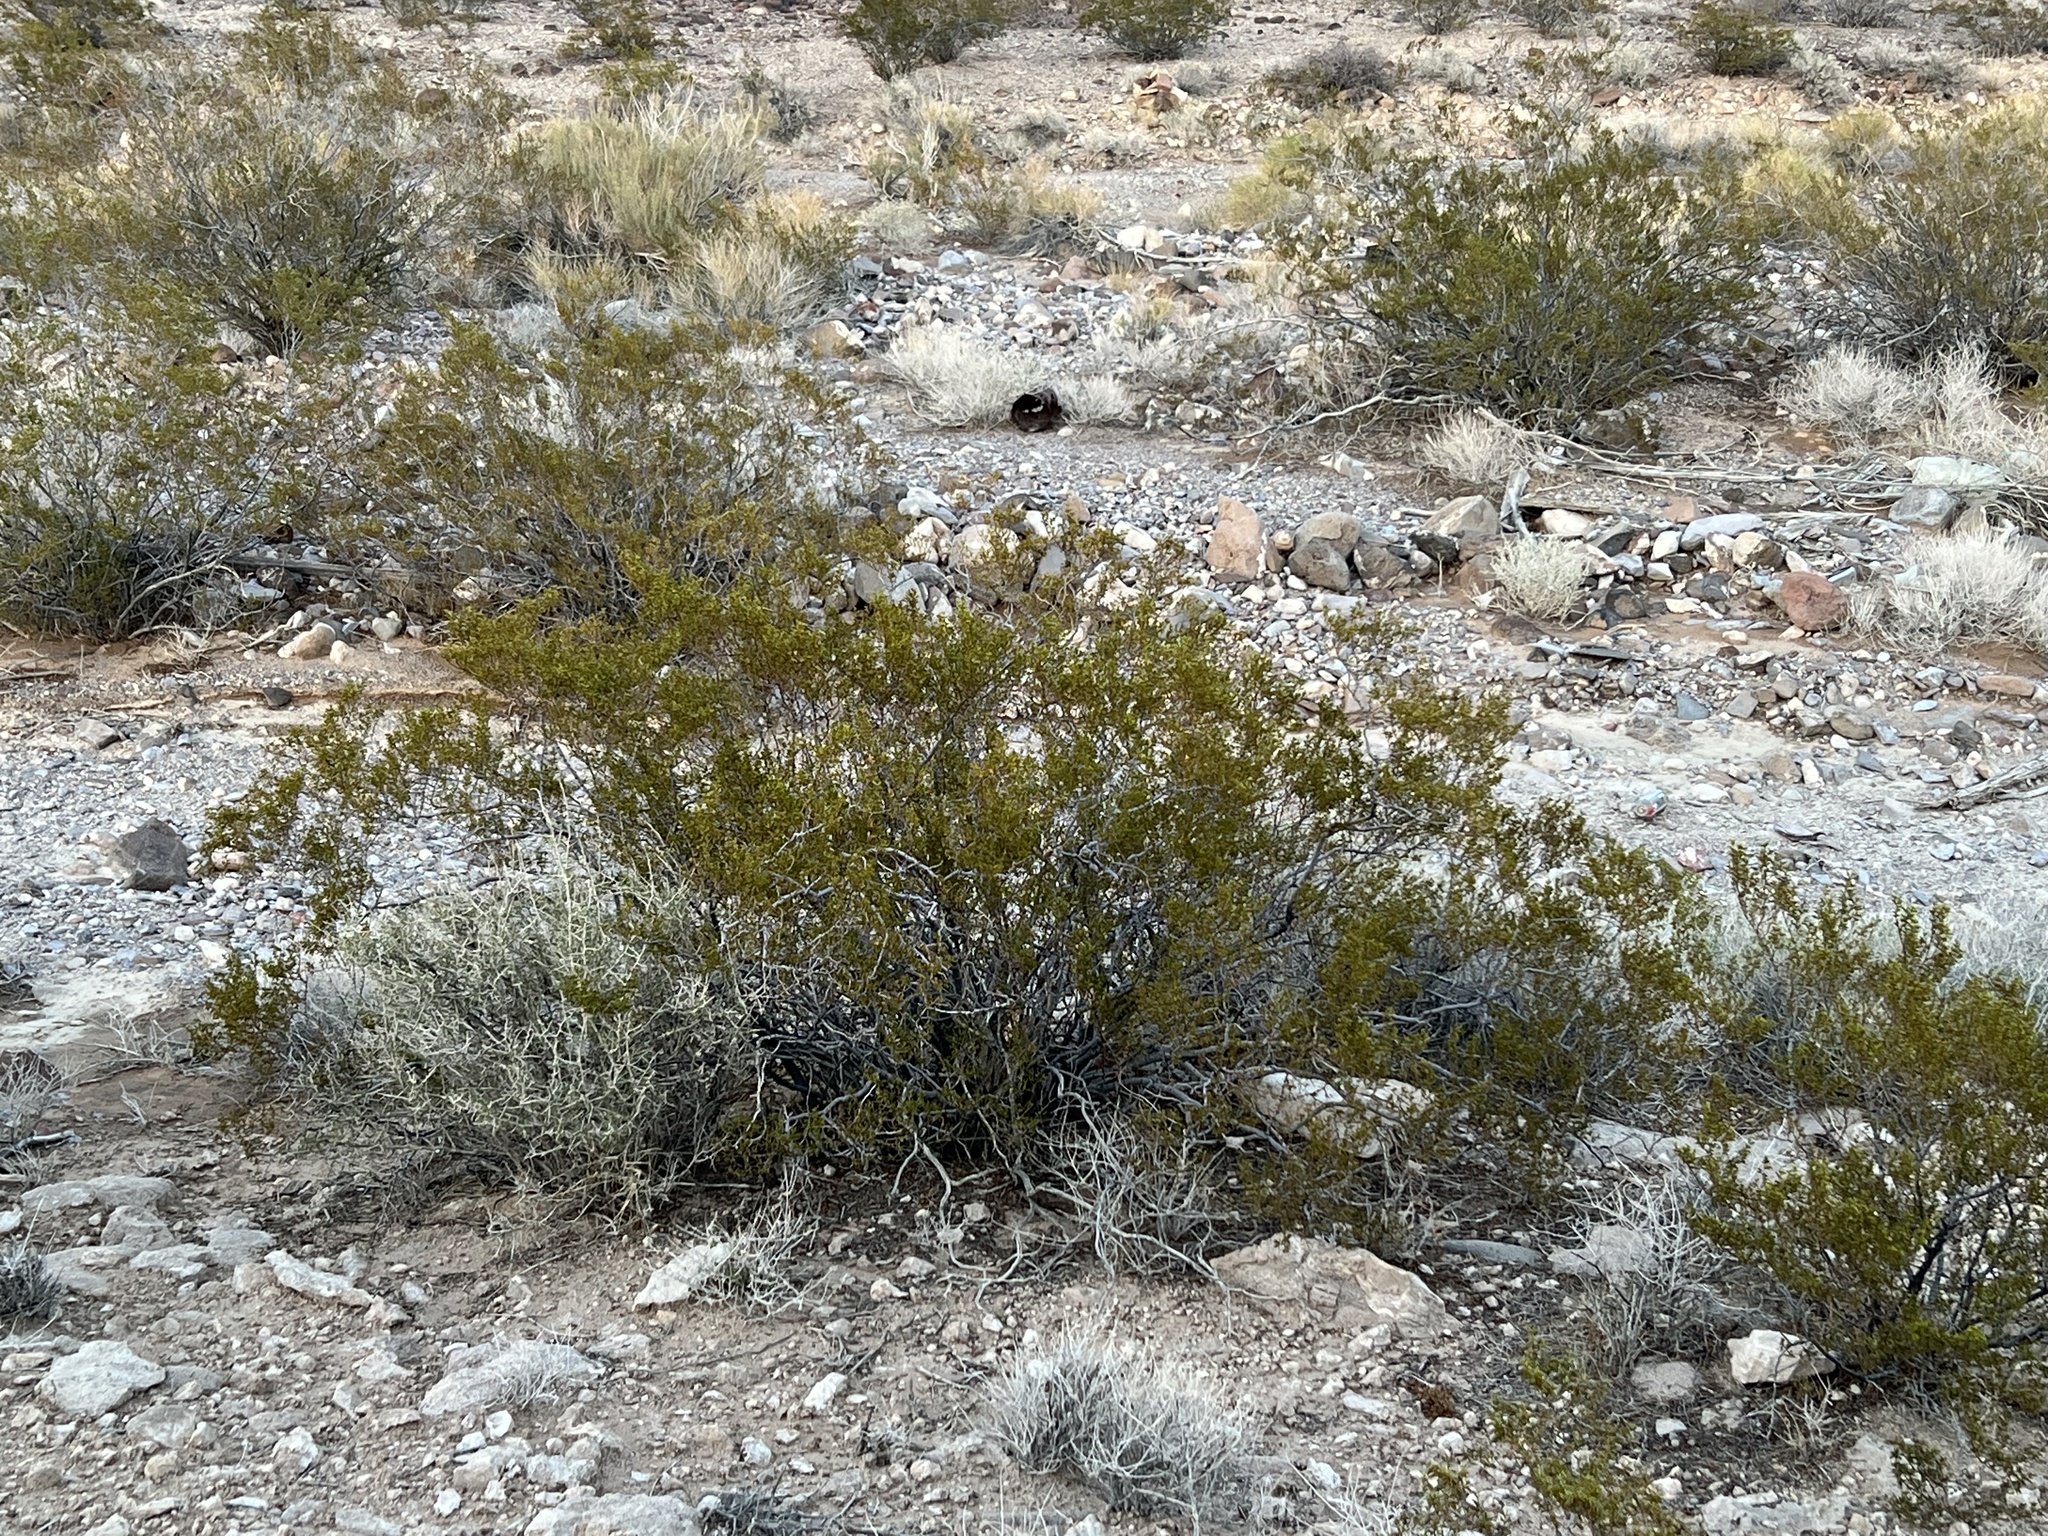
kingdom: Plantae
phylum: Tracheophyta
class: Magnoliopsida
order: Zygophyllales
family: Zygophyllaceae
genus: Larrea
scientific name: Larrea tridentata
